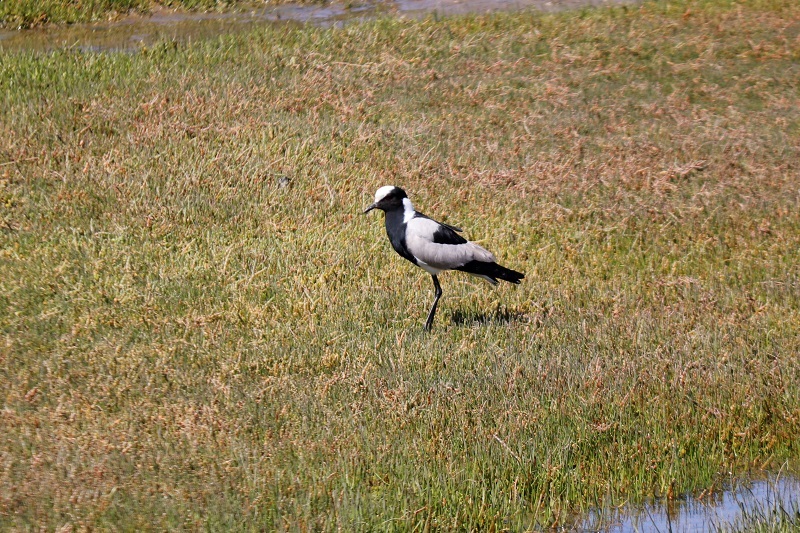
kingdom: Animalia
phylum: Chordata
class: Aves
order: Charadriiformes
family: Charadriidae
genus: Vanellus
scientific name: Vanellus armatus
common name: Blacksmith lapwing
